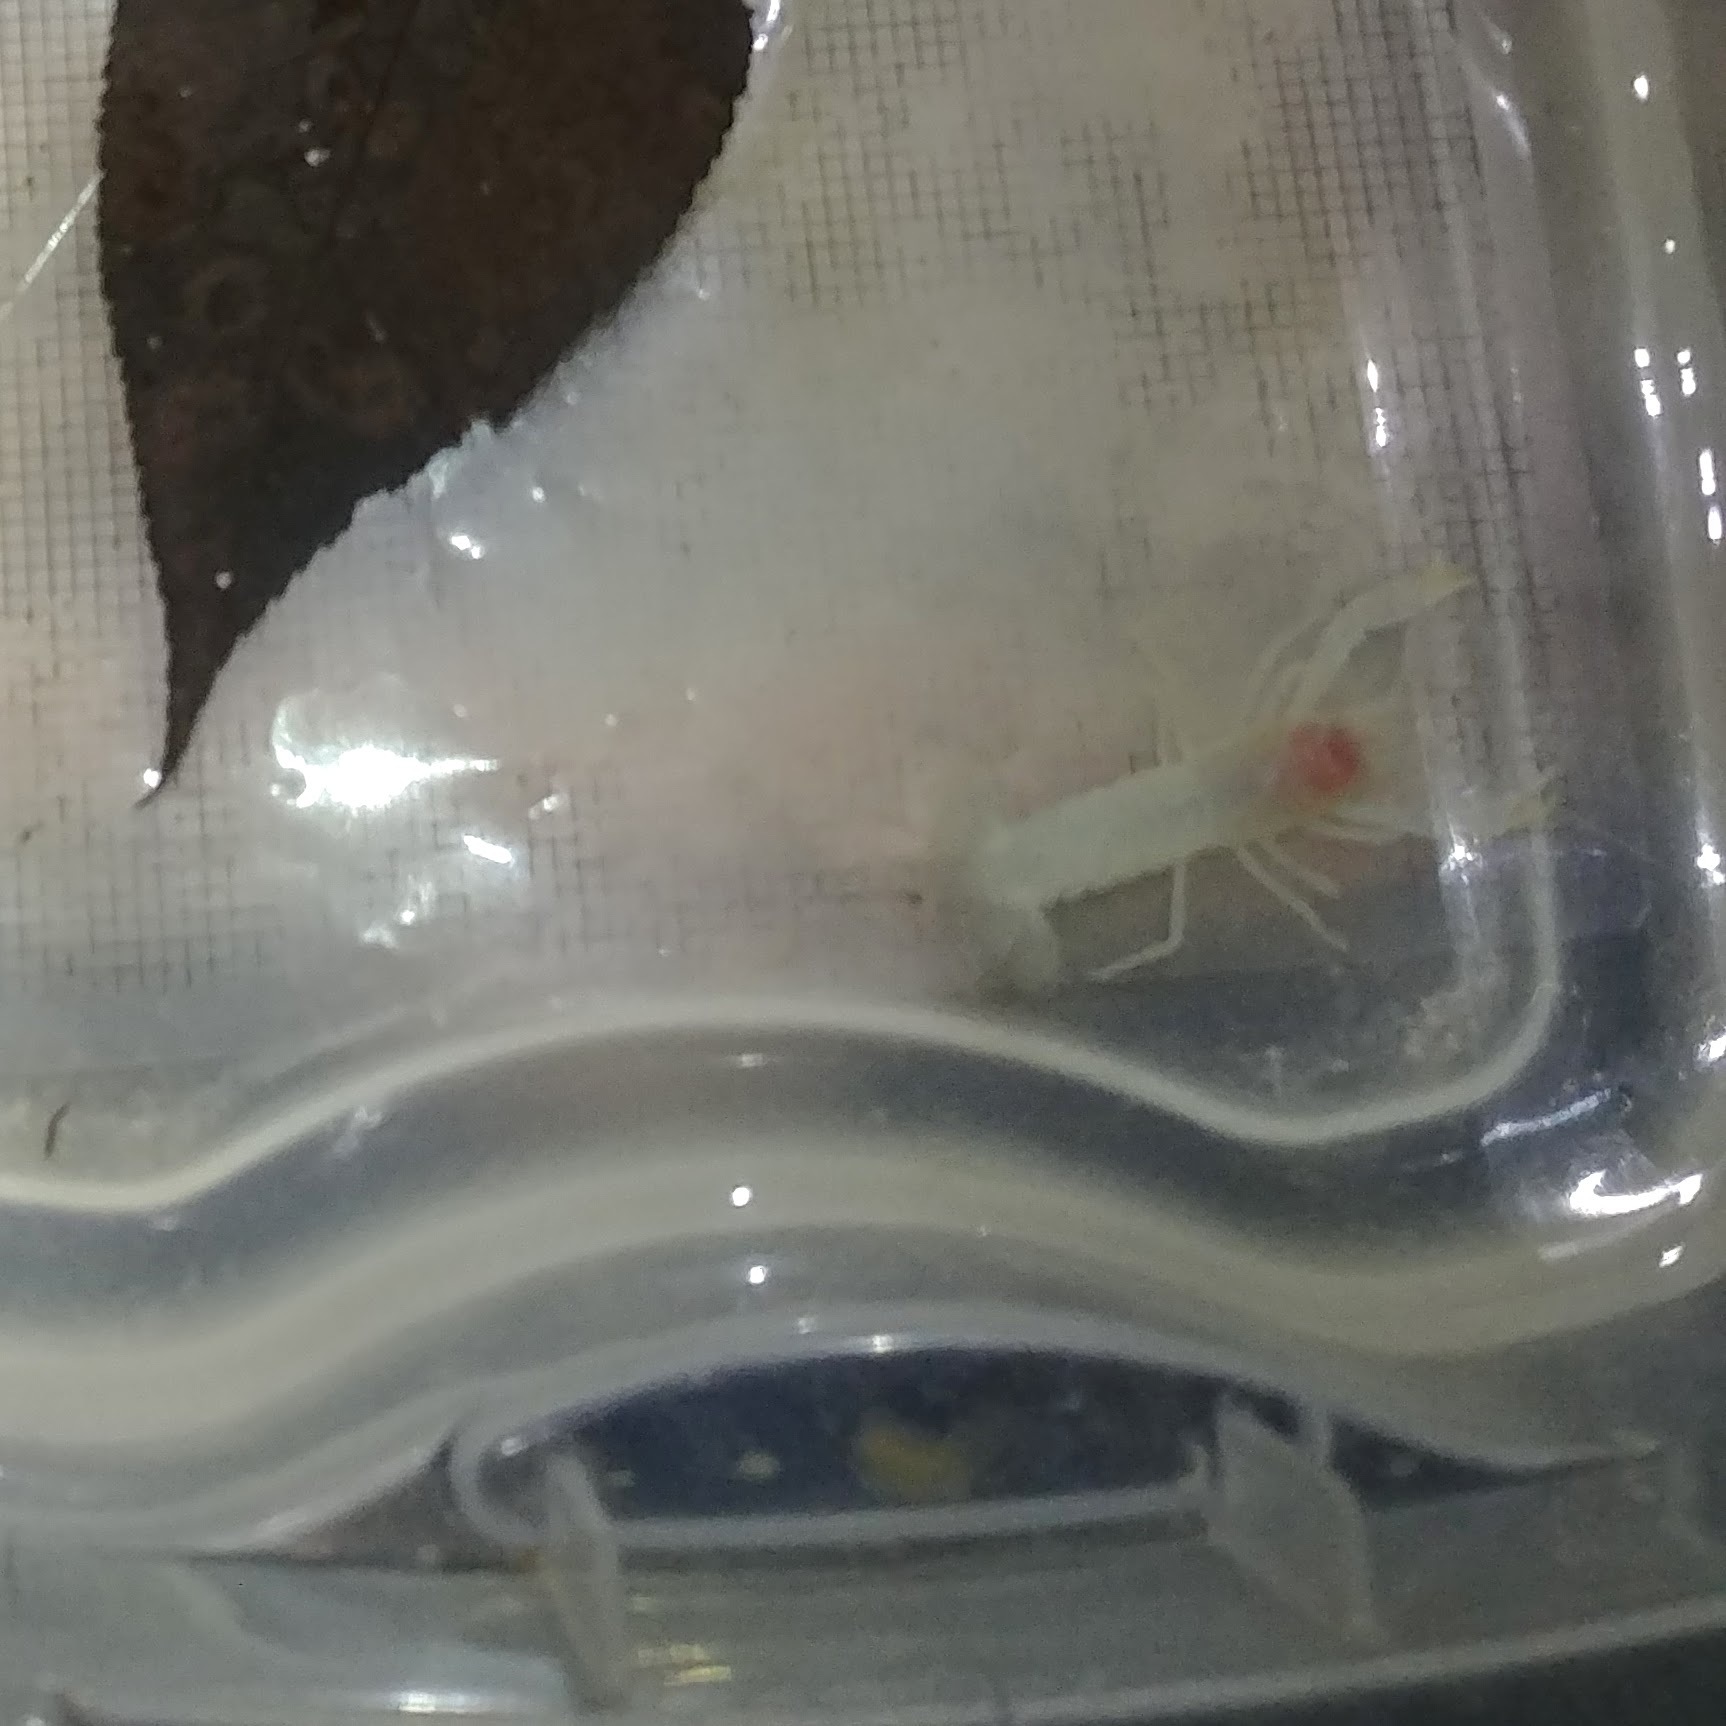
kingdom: Animalia
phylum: Arthropoda
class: Malacostraca
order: Decapoda
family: Cambaridae
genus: Orconectes
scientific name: Orconectes inermis
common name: Ghost crayfish
